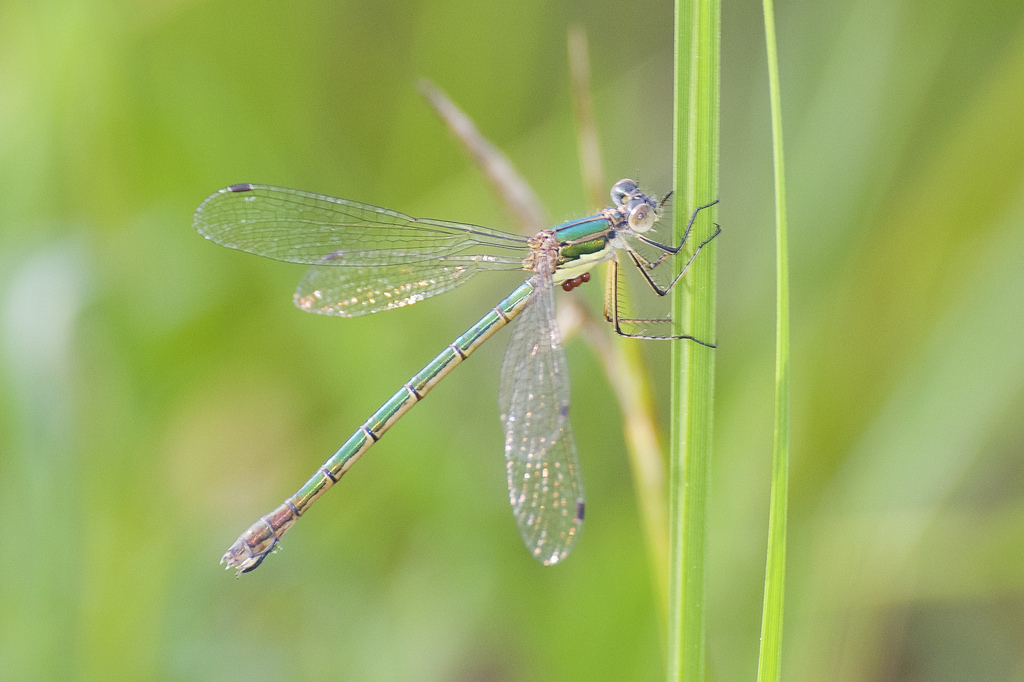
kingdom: Animalia
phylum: Arthropoda
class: Insecta
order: Odonata
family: Lestidae
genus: Lestes
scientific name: Lestes dryas
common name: Scarce emerald damselfly
